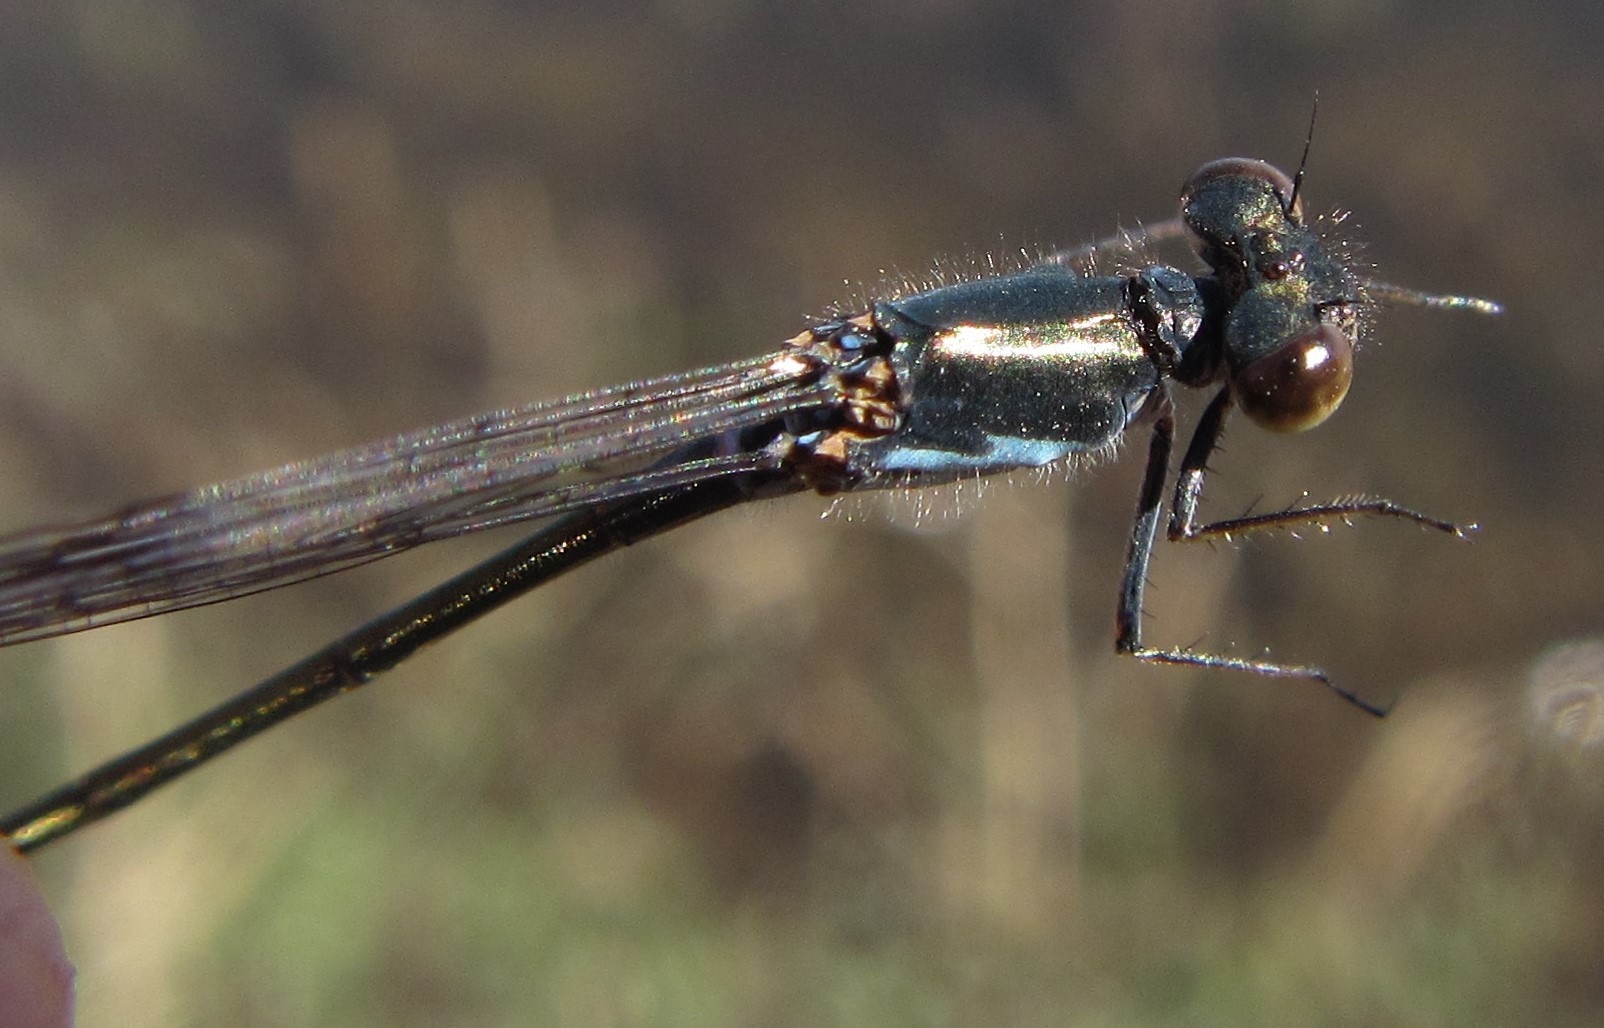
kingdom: Animalia
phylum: Arthropoda
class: Insecta
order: Odonata
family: Coenagrionidae
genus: Pseudagrion
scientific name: Pseudagrion deningi
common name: Dening's sprite
